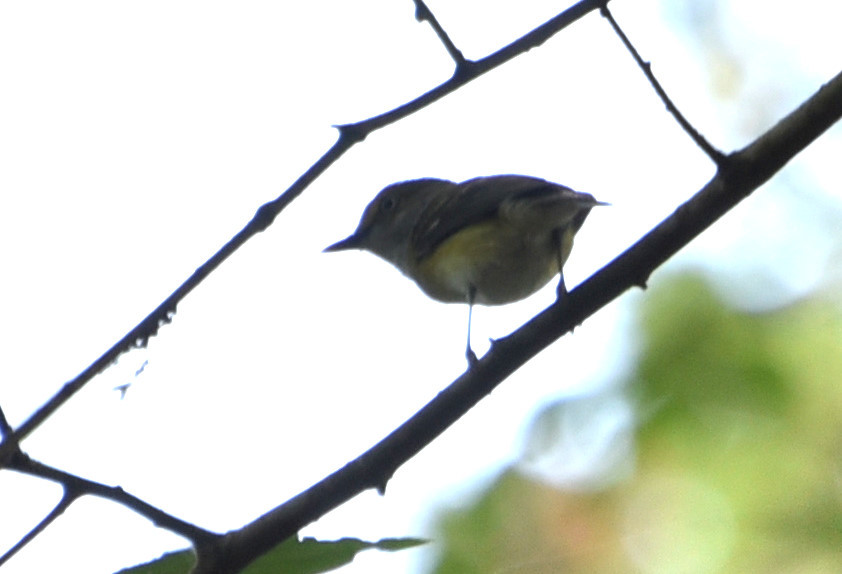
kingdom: Animalia
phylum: Chordata
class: Aves
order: Passeriformes
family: Vireonidae
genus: Vireo
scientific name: Vireo griseus
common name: White-eyed vireo
